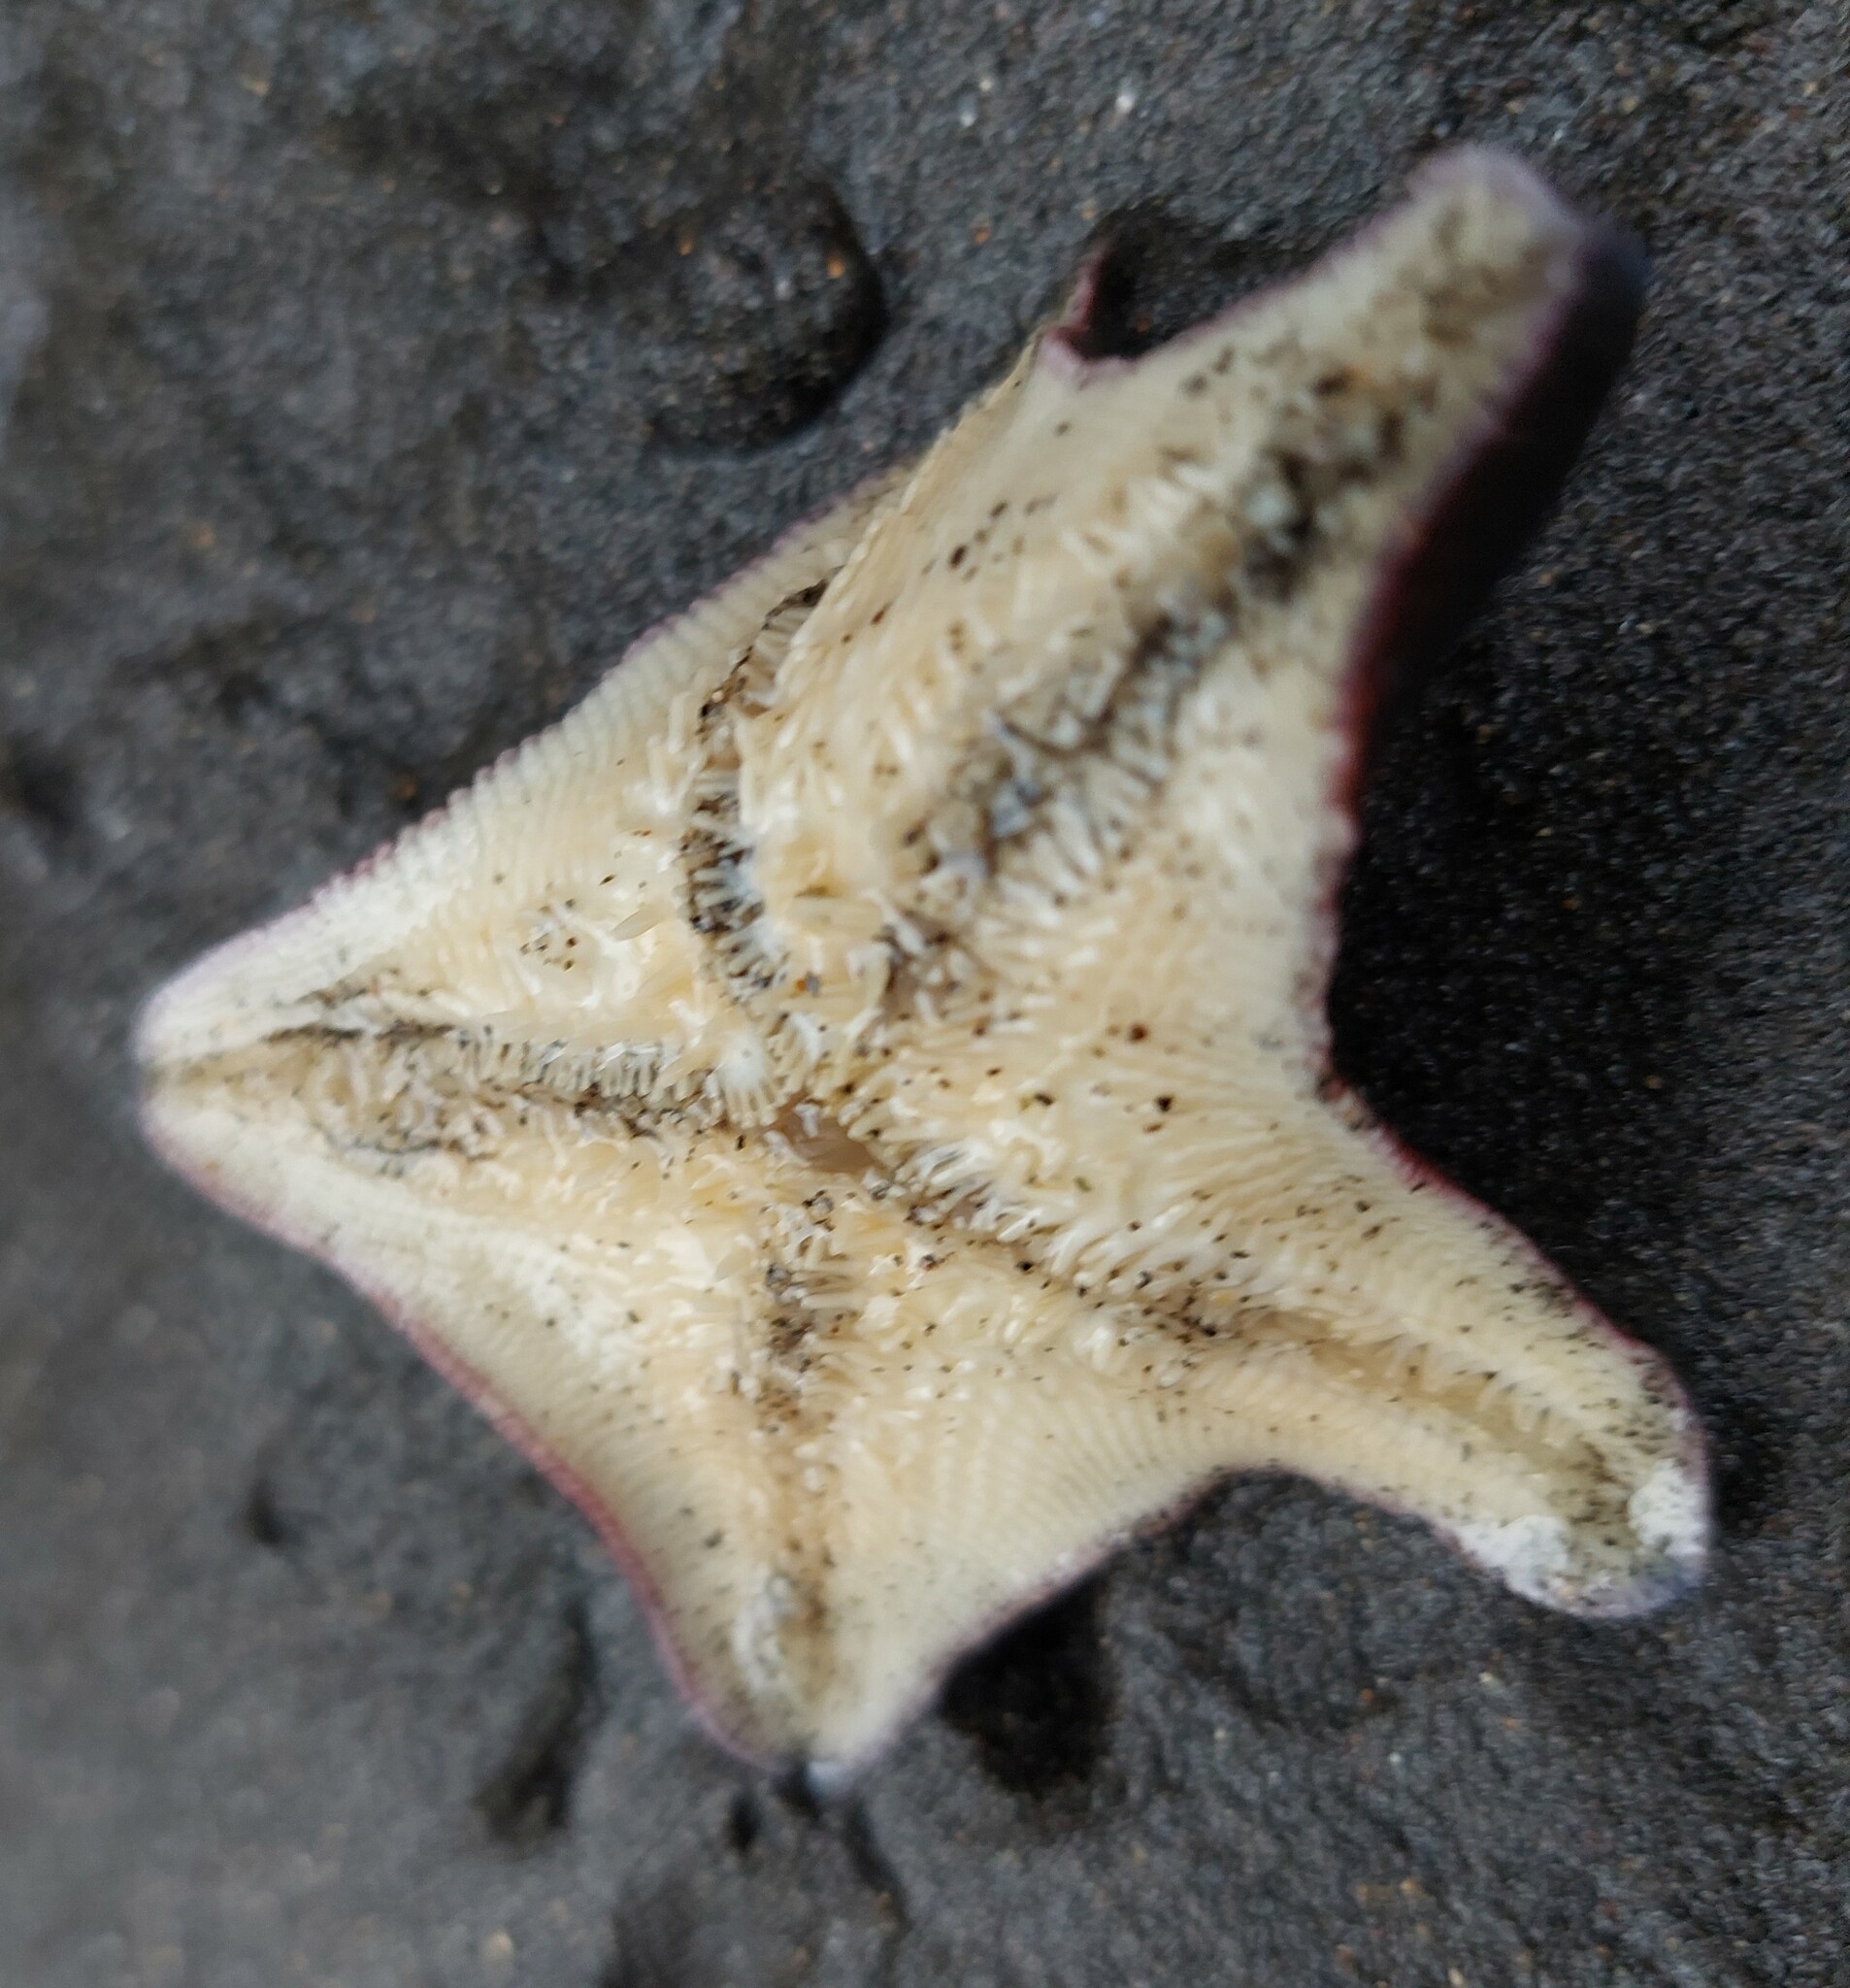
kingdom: Animalia
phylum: Echinodermata
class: Asteroidea
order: Valvatida
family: Asterinidae
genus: Patiriella
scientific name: Patiriella regularis
